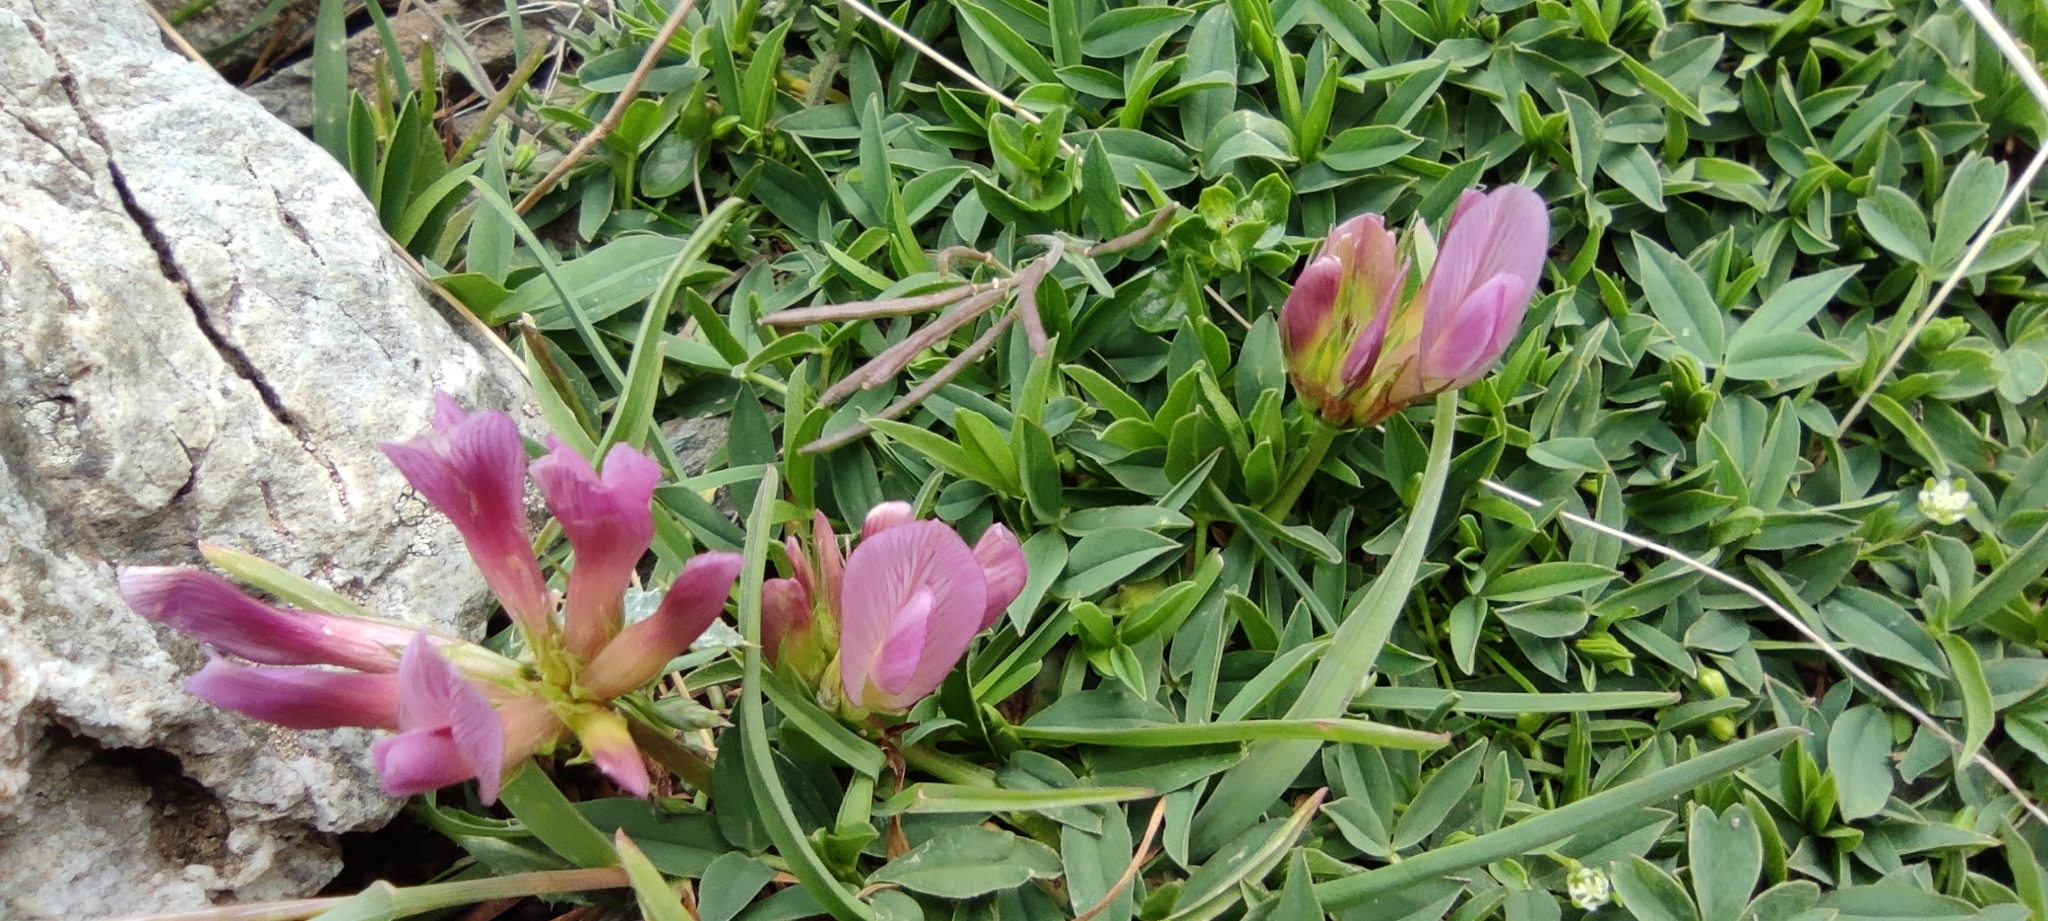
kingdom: Plantae
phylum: Tracheophyta
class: Magnoliopsida
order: Fabales
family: Fabaceae
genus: Trifolium
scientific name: Trifolium alpinum
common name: Alpine clover
